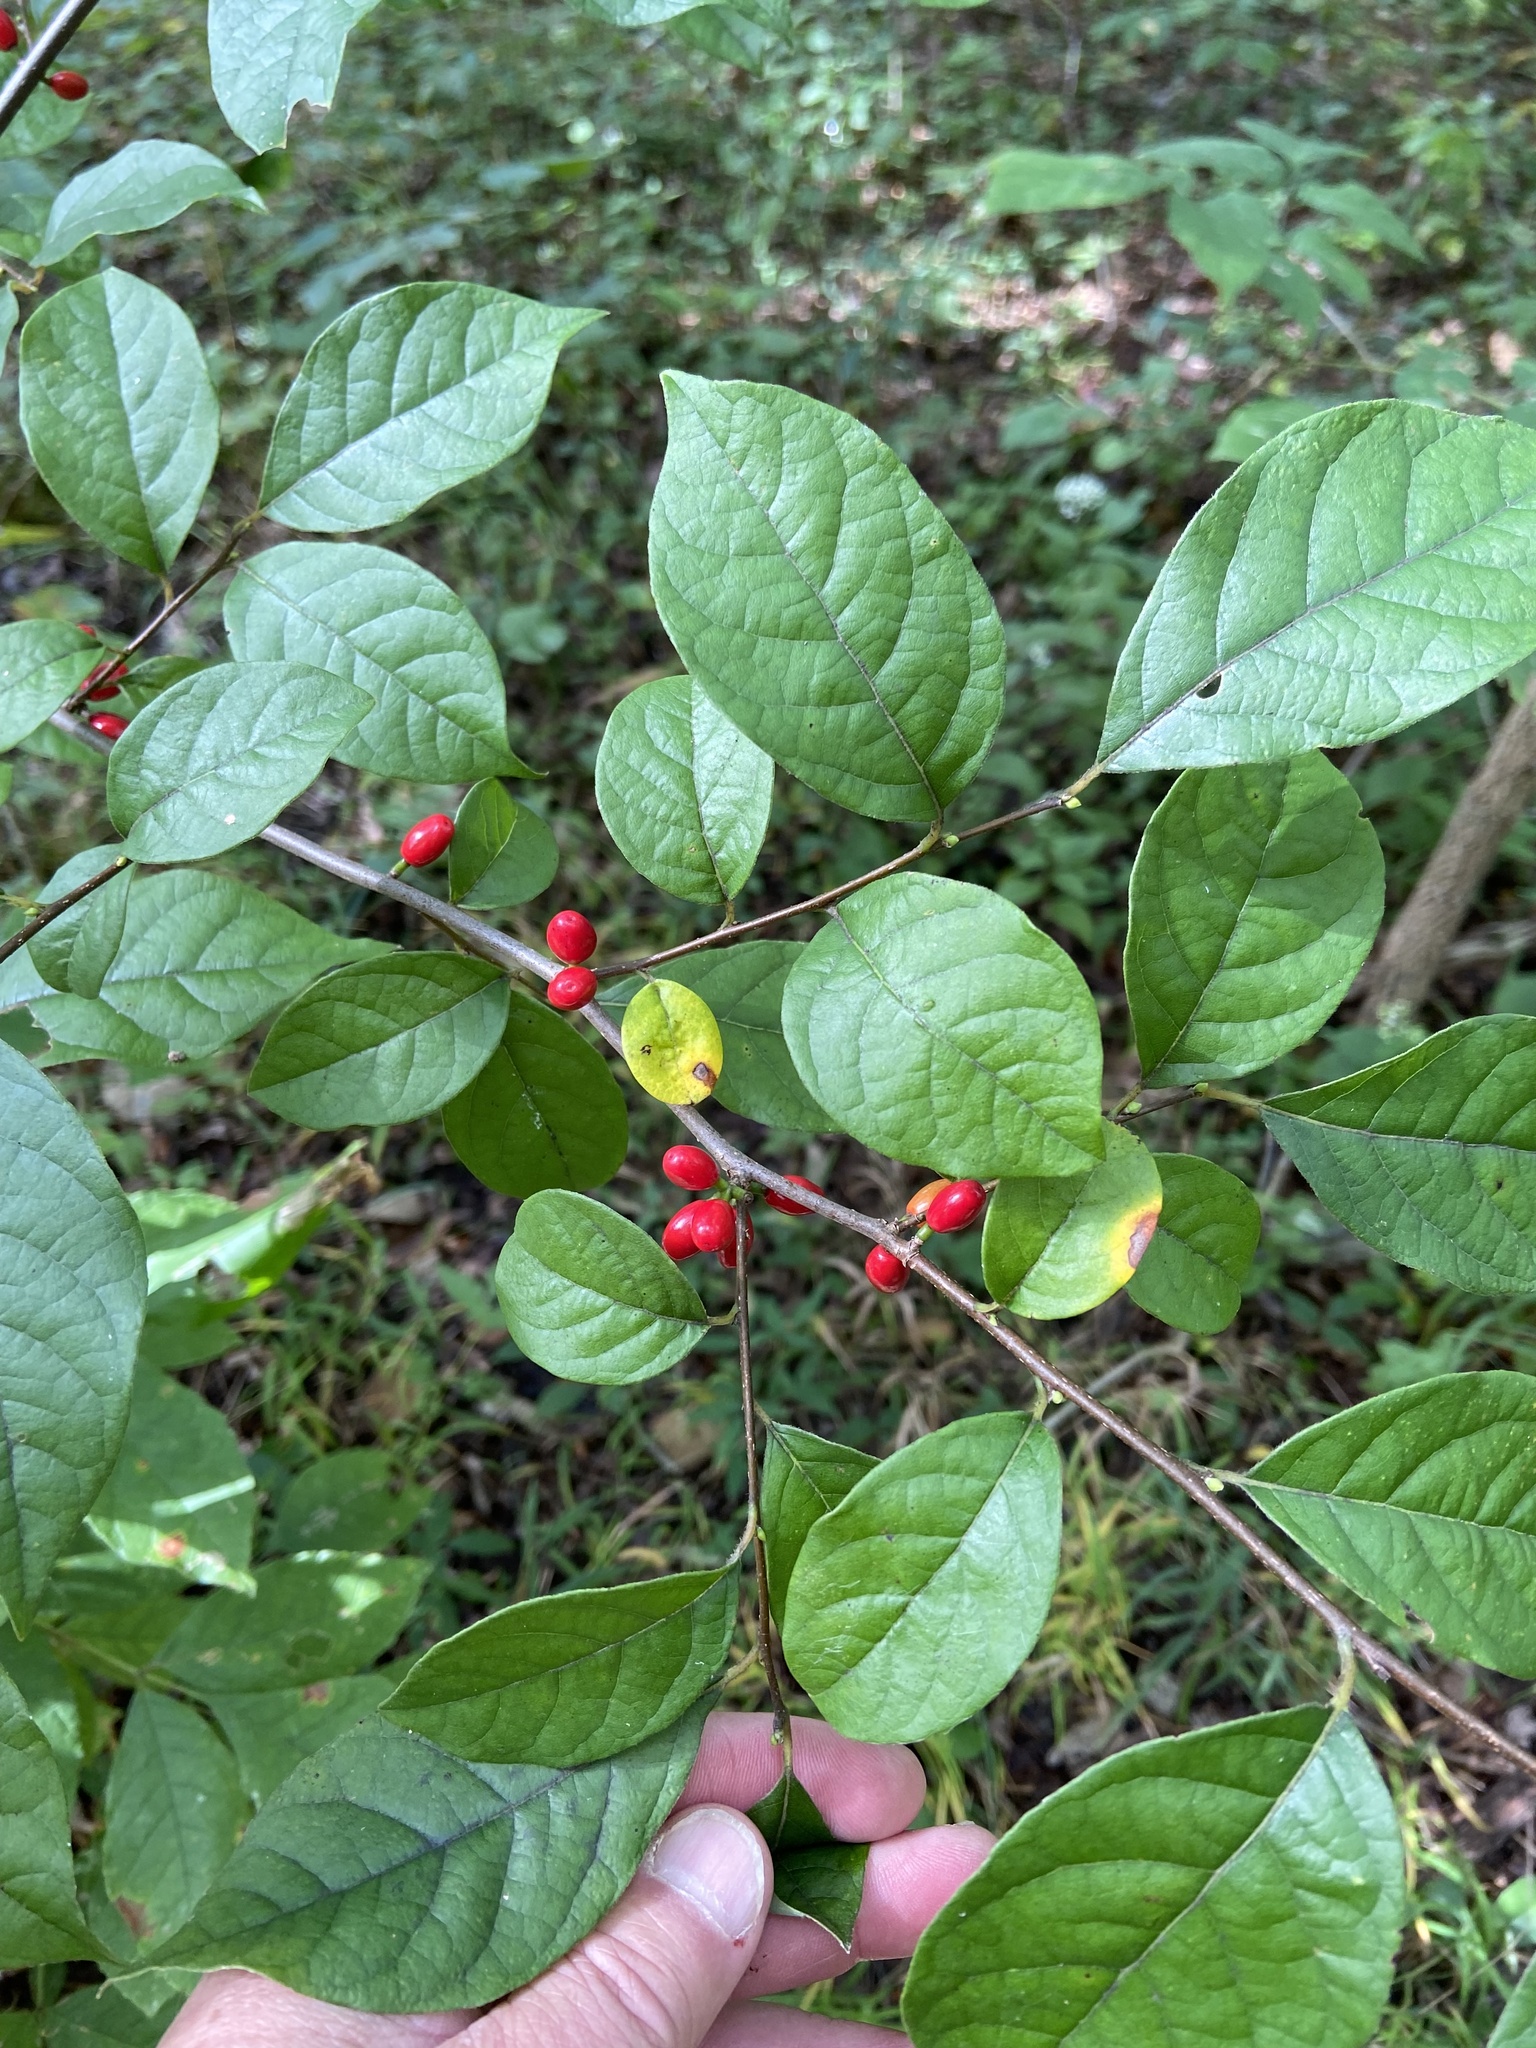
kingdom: Plantae
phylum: Tracheophyta
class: Magnoliopsida
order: Laurales
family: Lauraceae
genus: Lindera
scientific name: Lindera benzoin
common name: Spicebush
